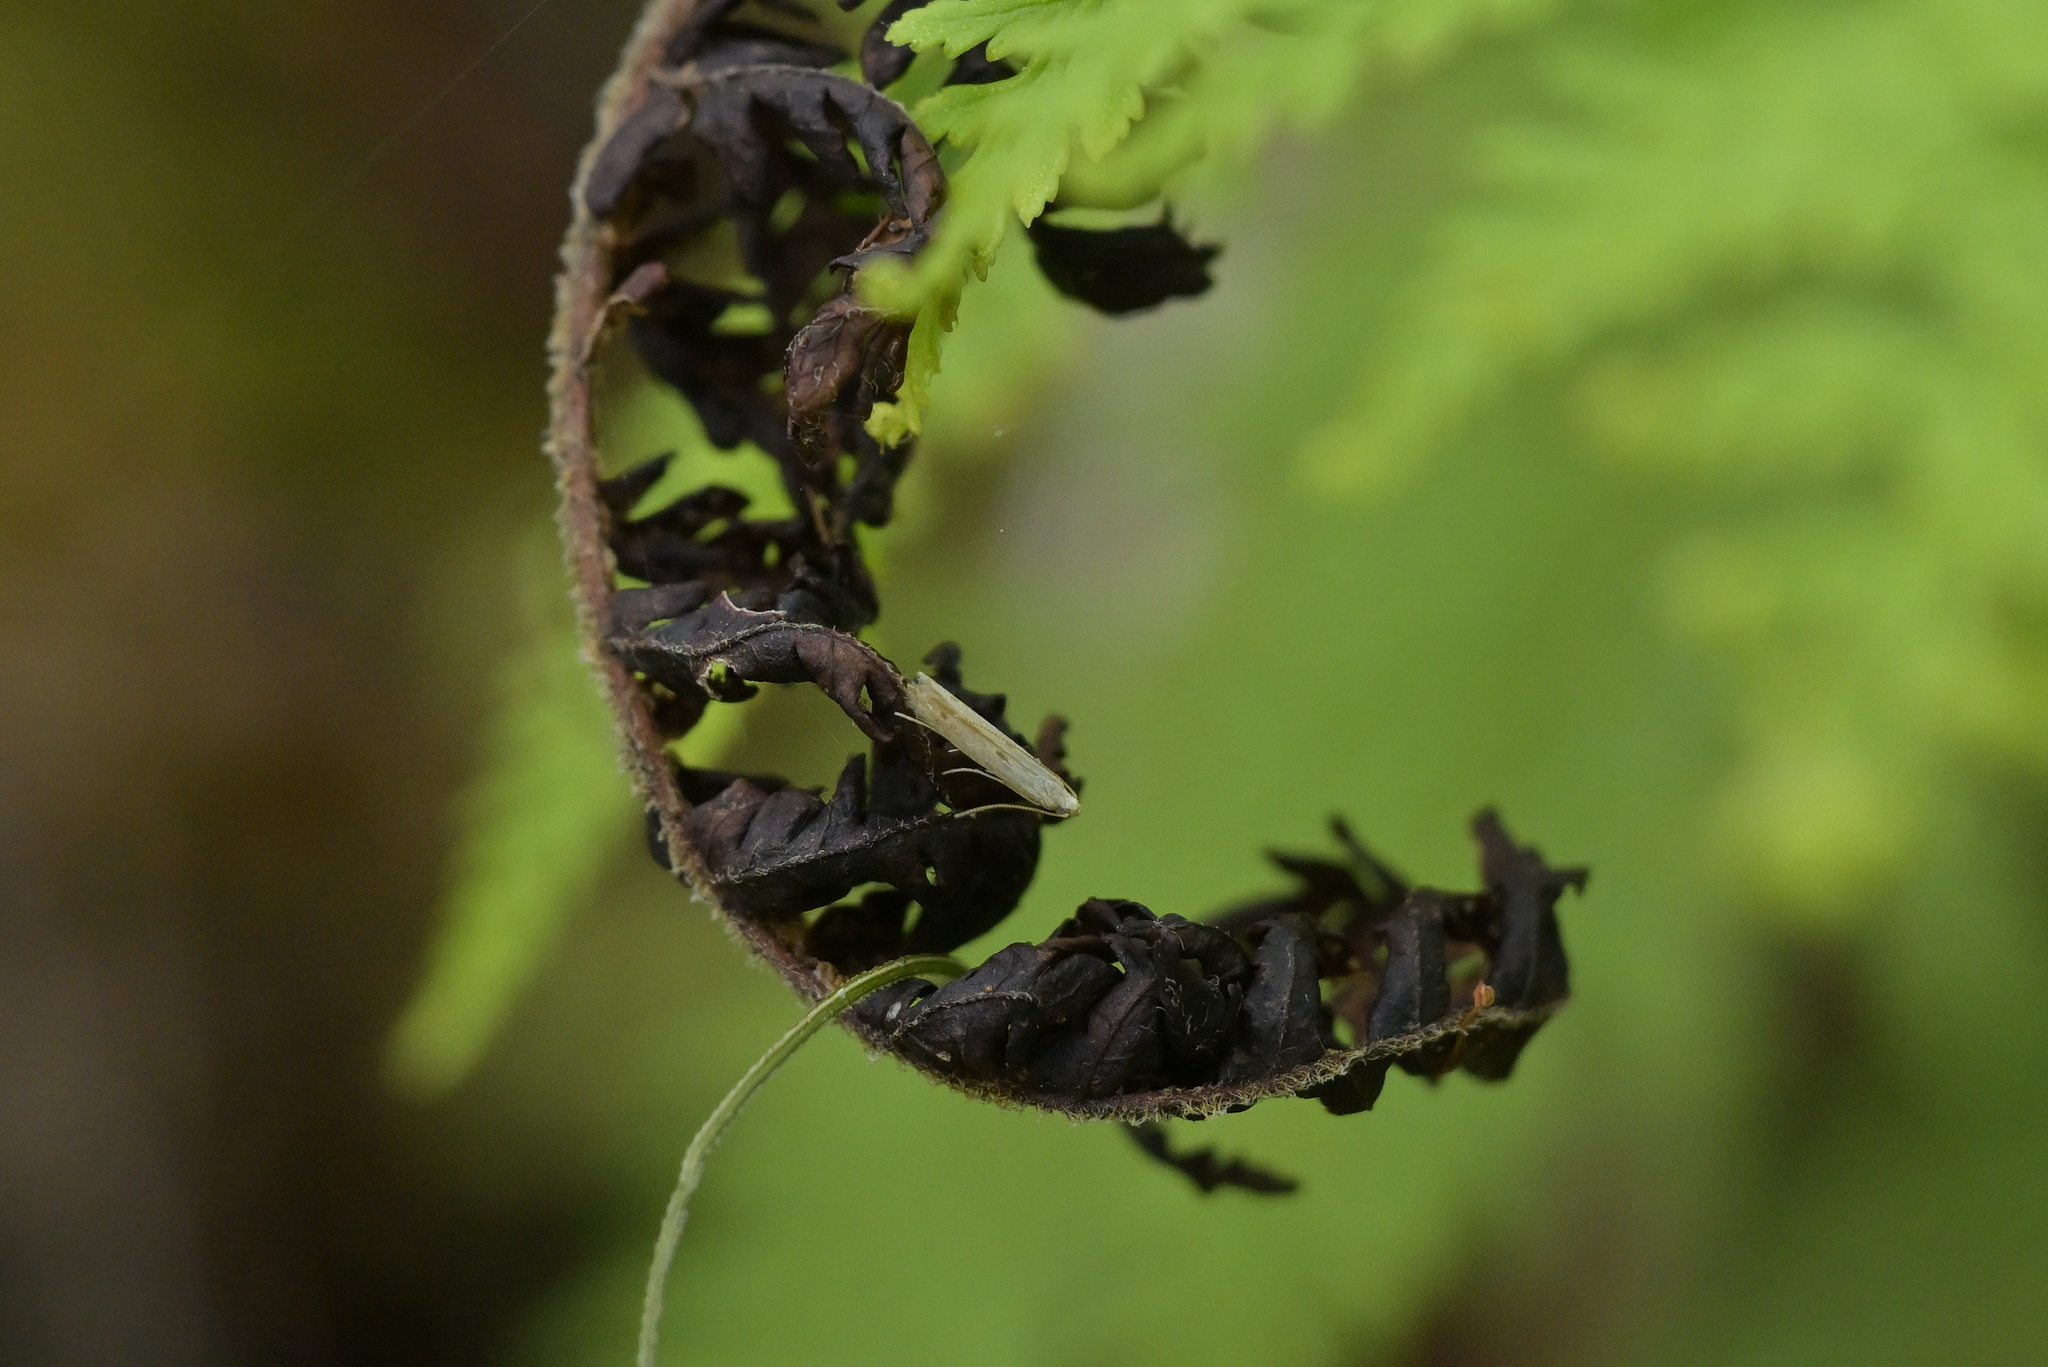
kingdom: Animalia
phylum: Arthropoda
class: Insecta
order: Lepidoptera
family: Batrachedridae
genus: Batrachedra
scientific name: Batrachedra psithyra
